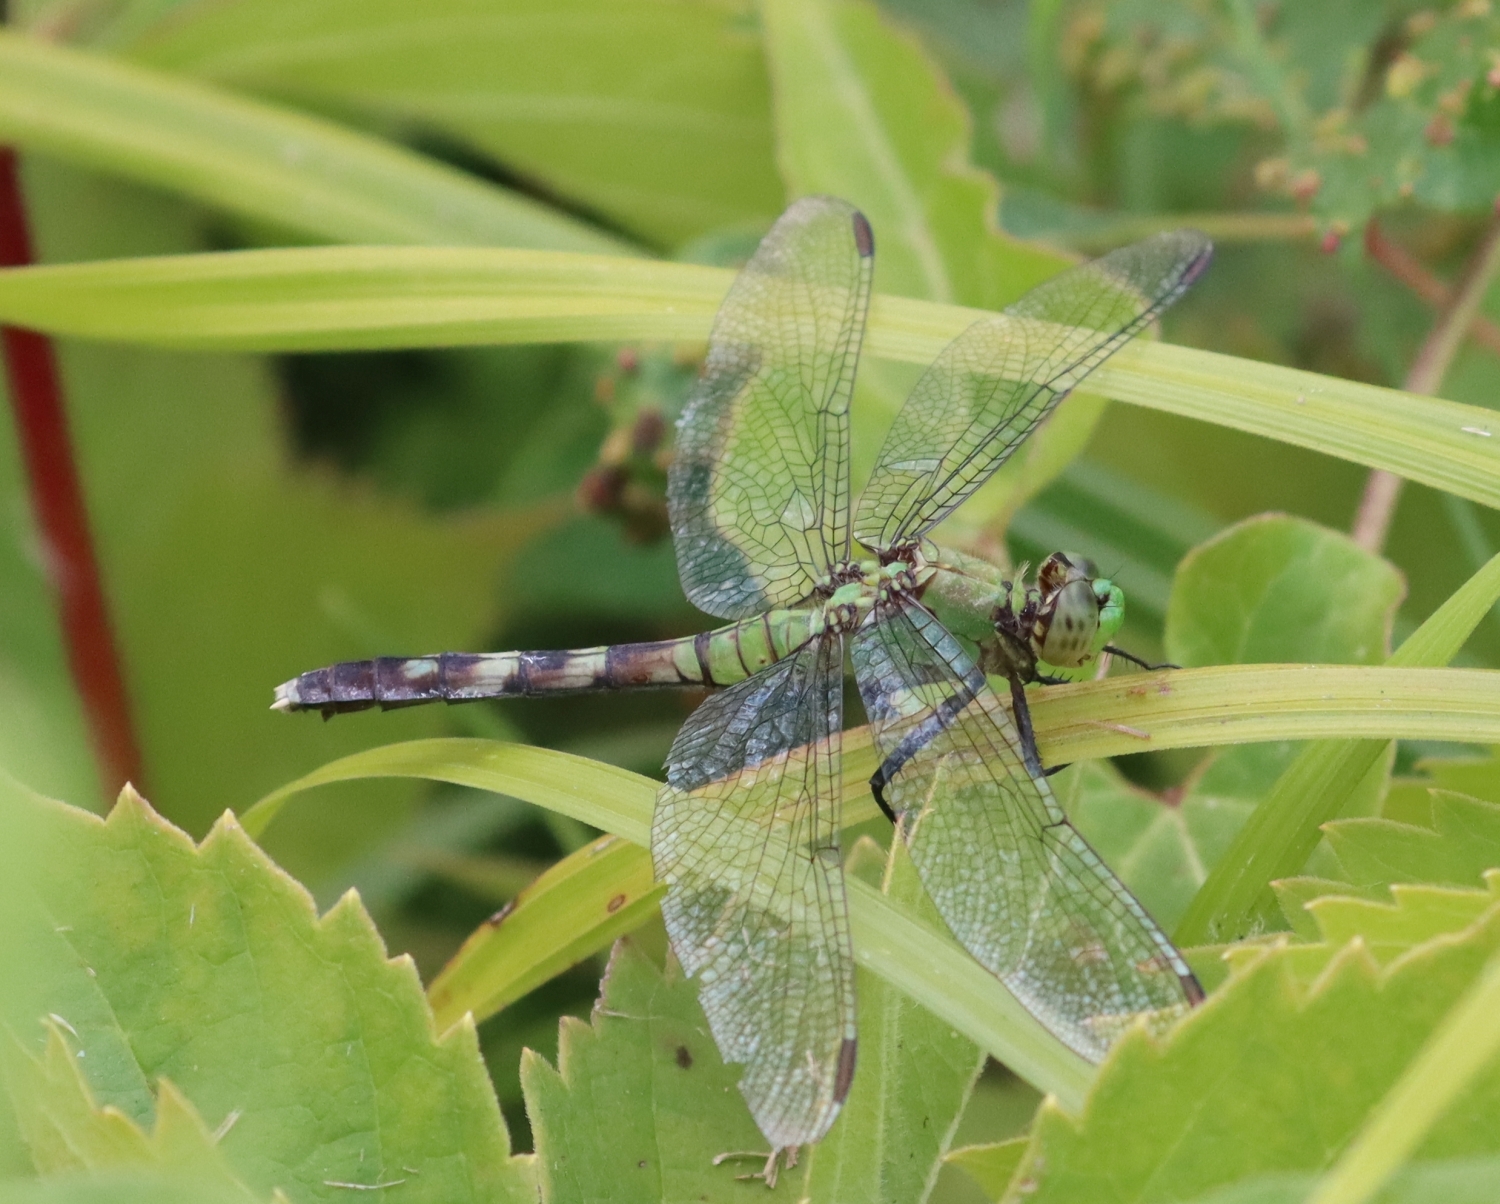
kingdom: Animalia
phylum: Arthropoda
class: Insecta
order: Odonata
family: Libellulidae
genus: Erythemis
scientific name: Erythemis simplicicollis
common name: Eastern pondhawk
